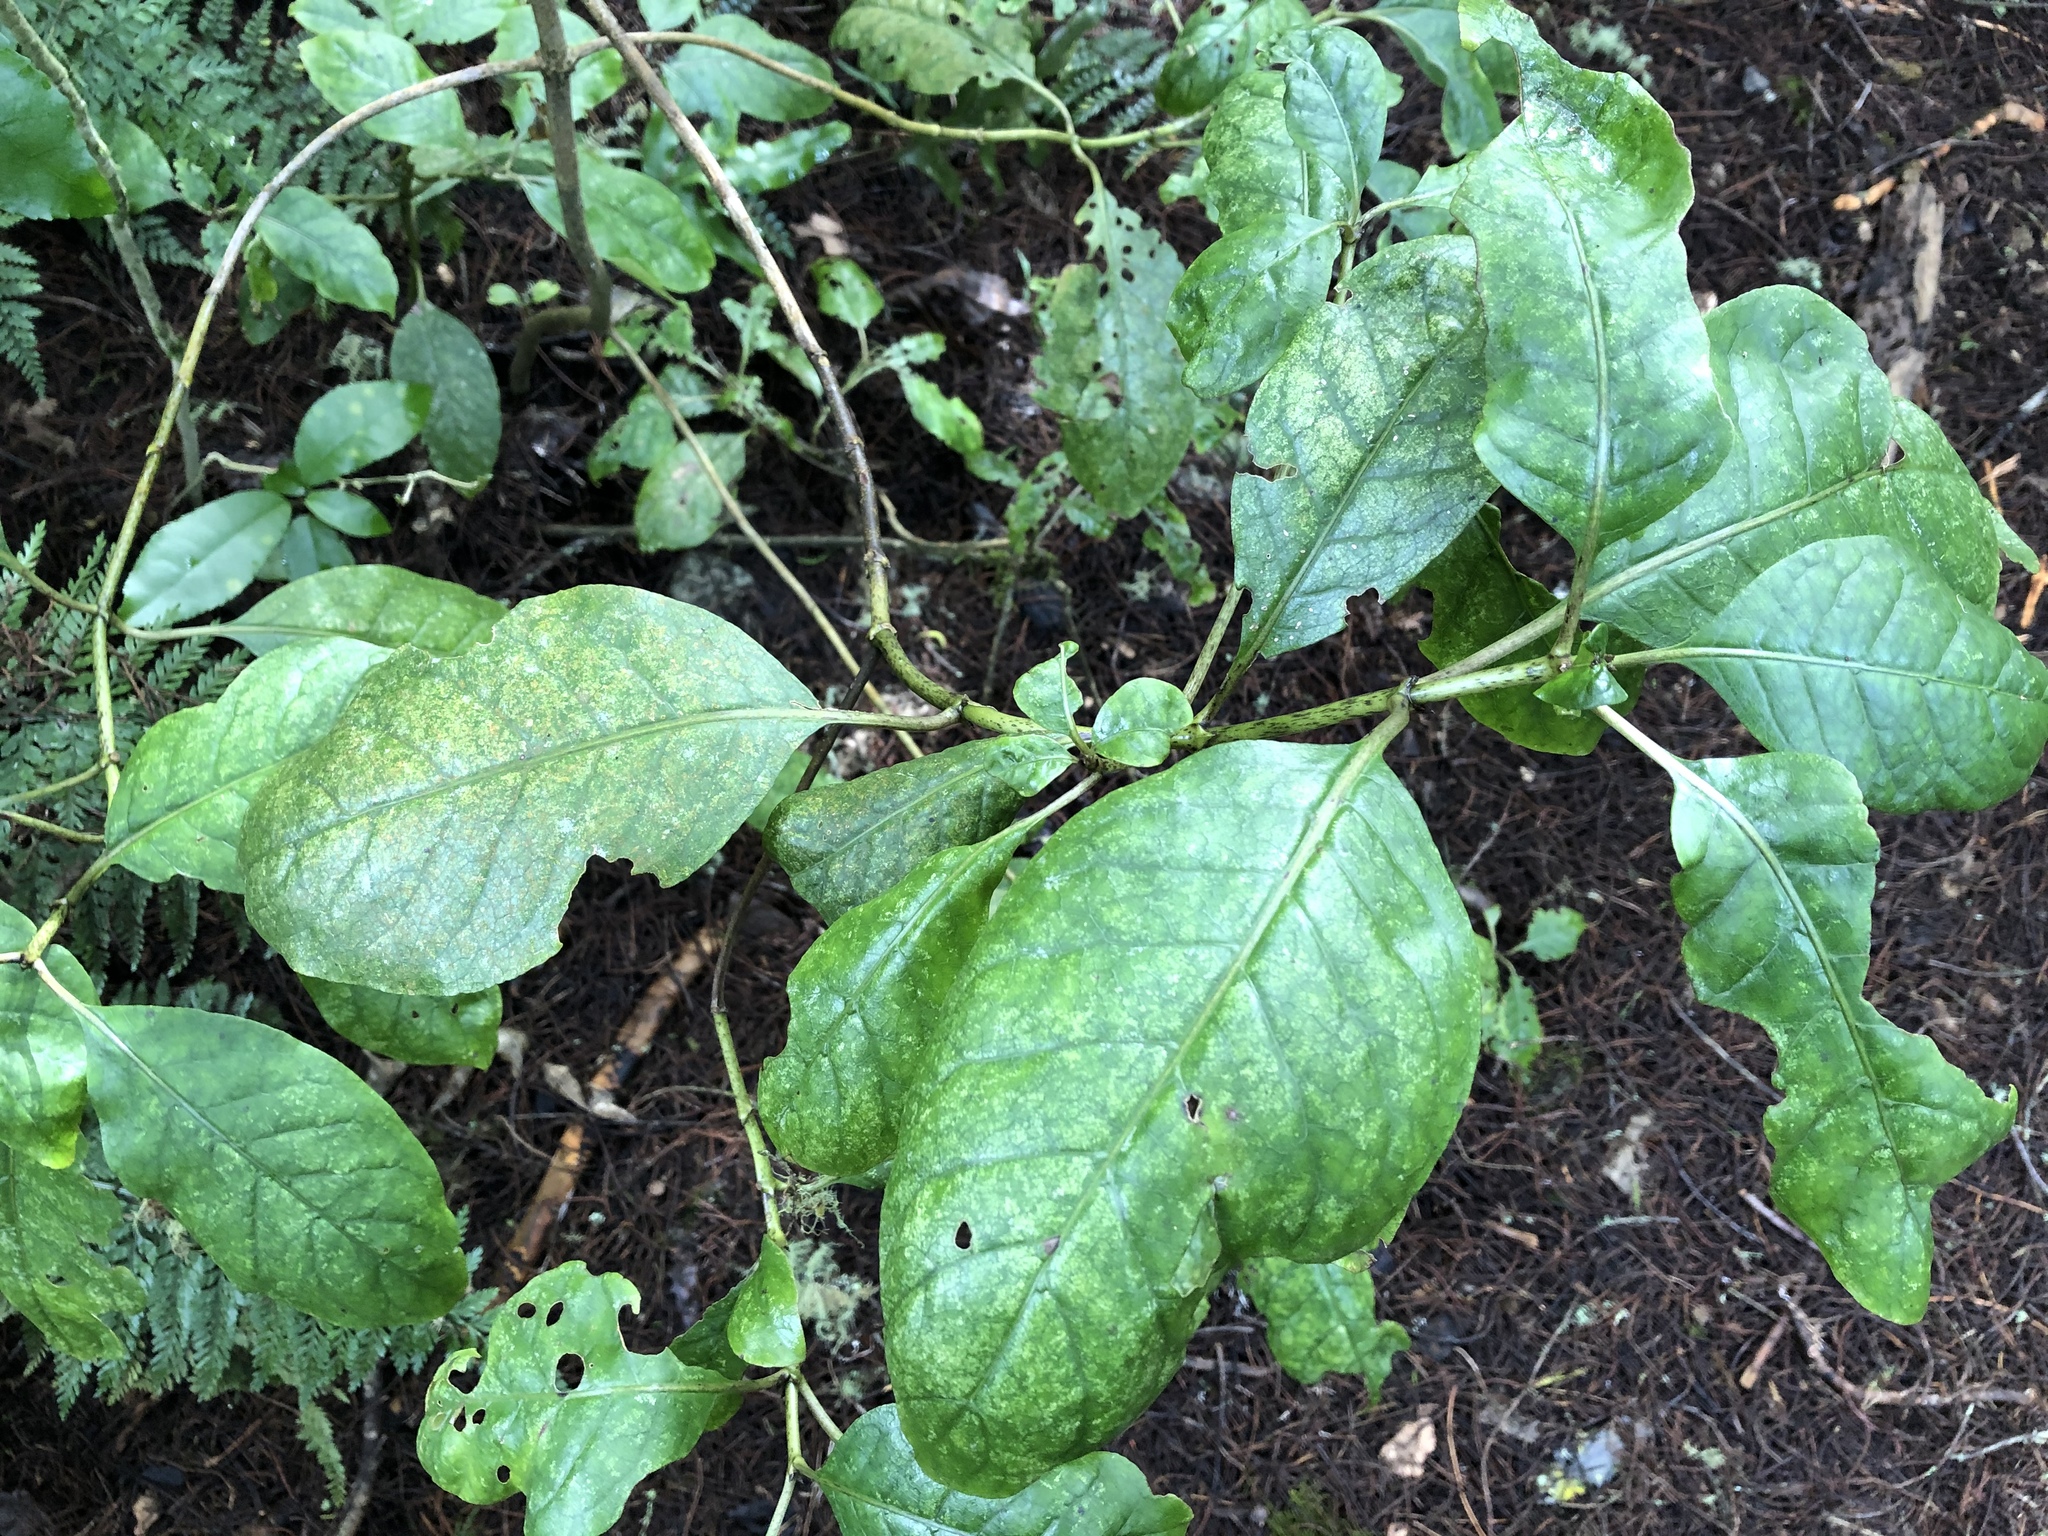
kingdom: Plantae
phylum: Tracheophyta
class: Magnoliopsida
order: Gentianales
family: Rubiaceae
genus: Coprosma
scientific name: Coprosma autumnalis
